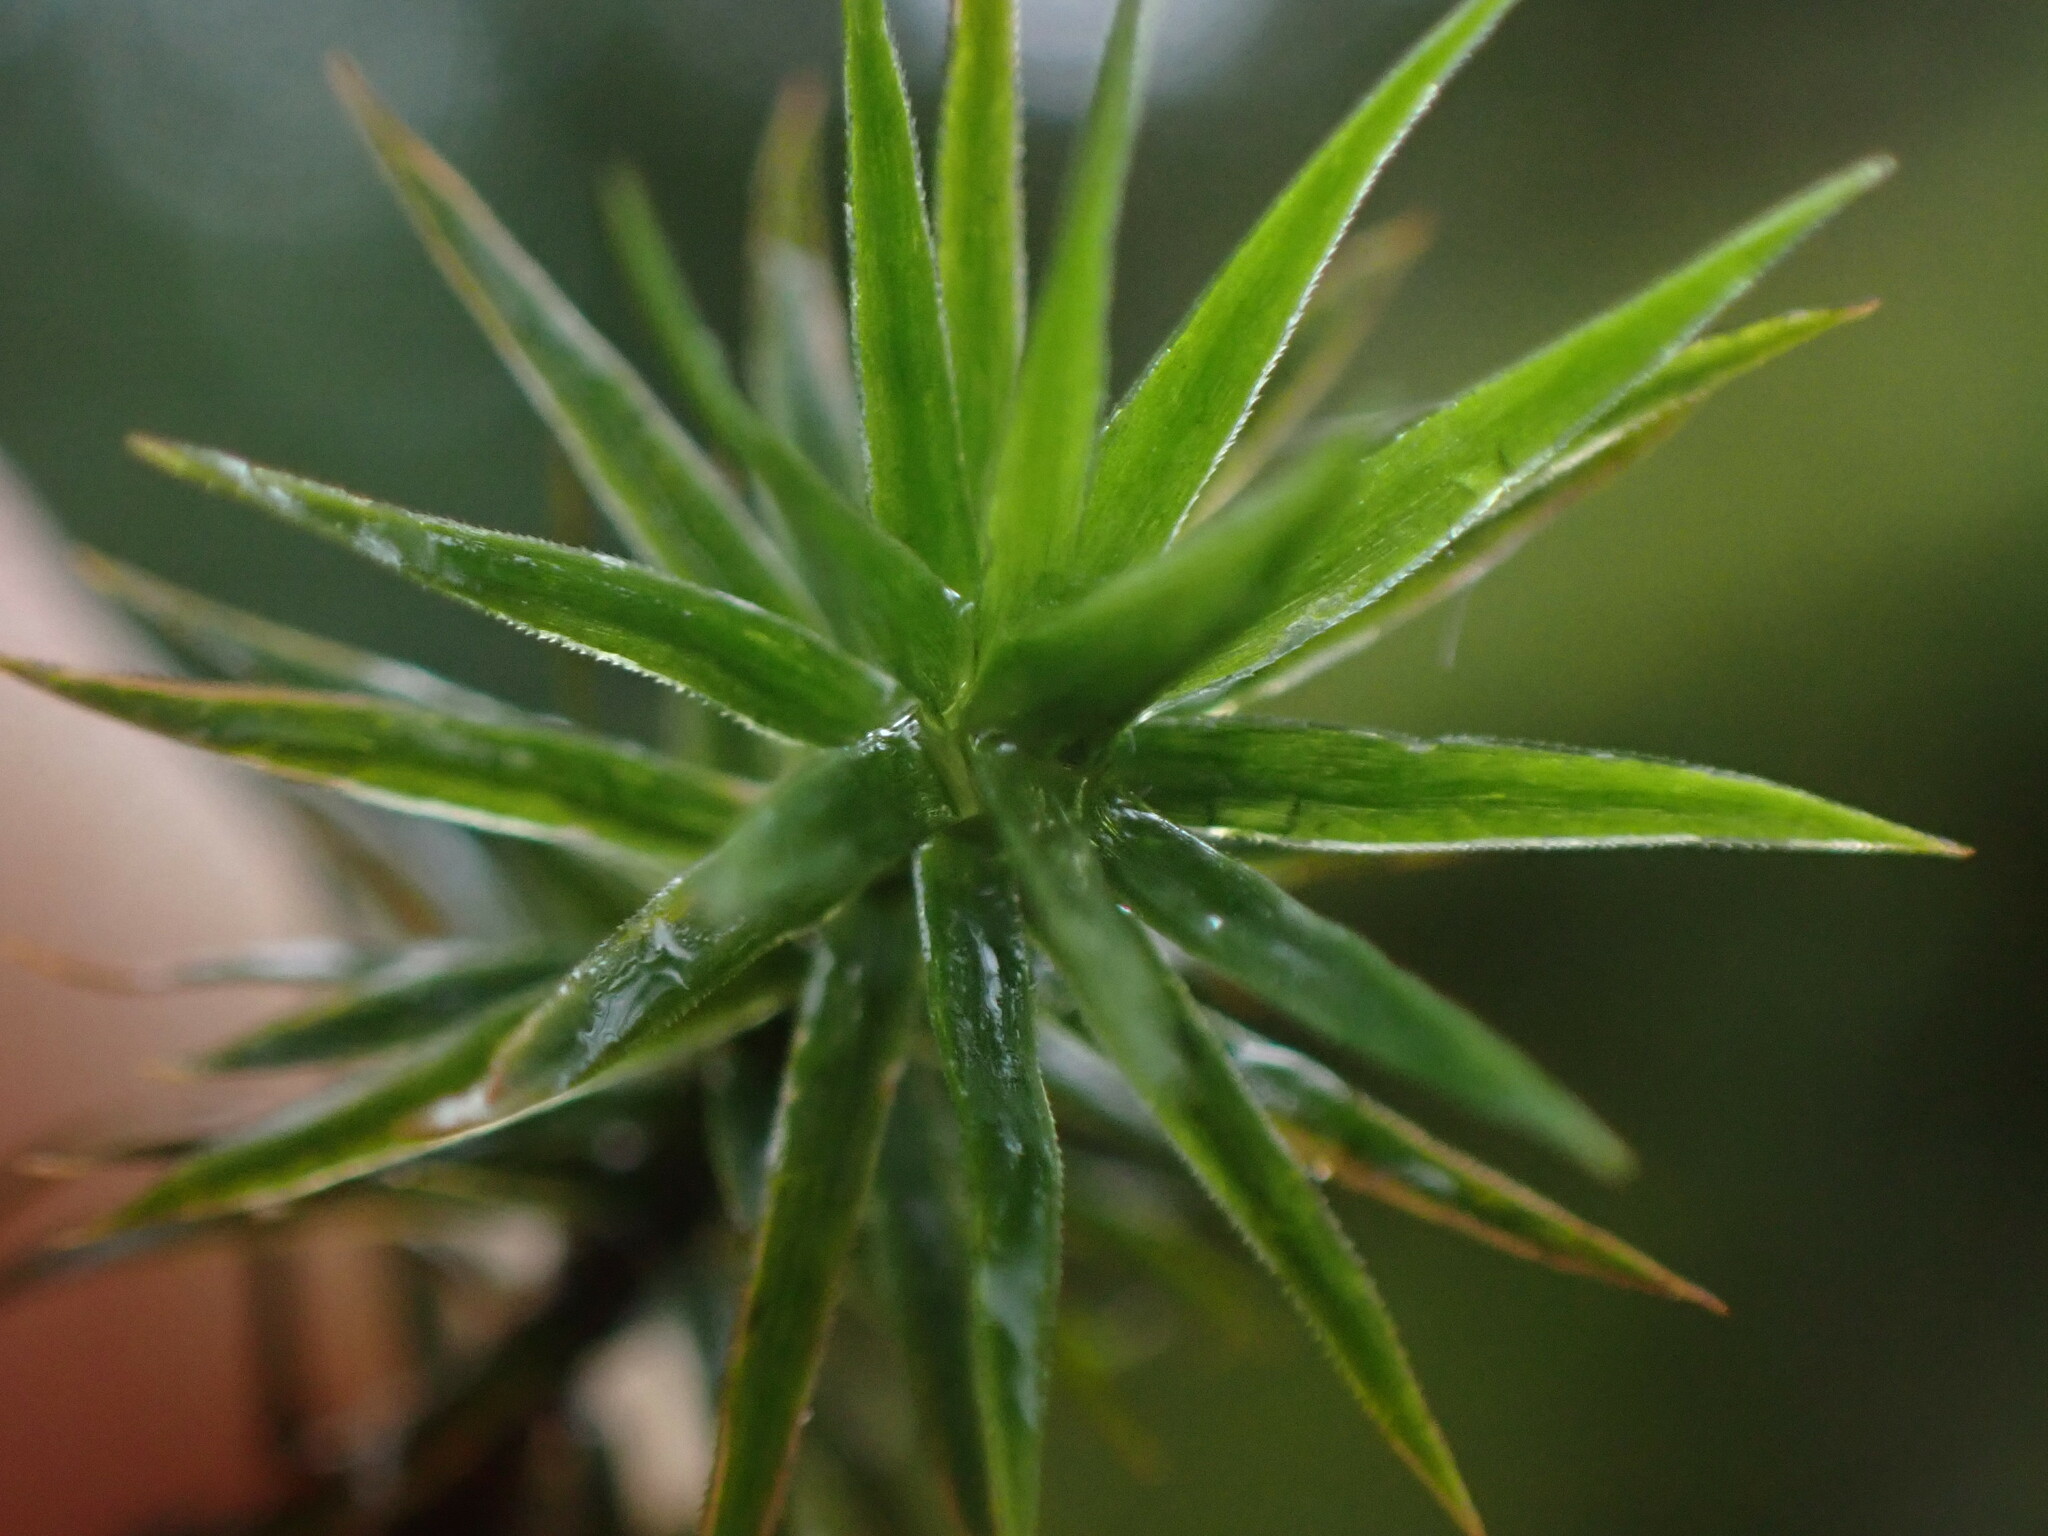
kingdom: Plantae
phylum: Bryophyta
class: Polytrichopsida
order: Polytrichales
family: Polytrichaceae
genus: Polytrichum
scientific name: Polytrichum formosum
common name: Bank haircap moss
